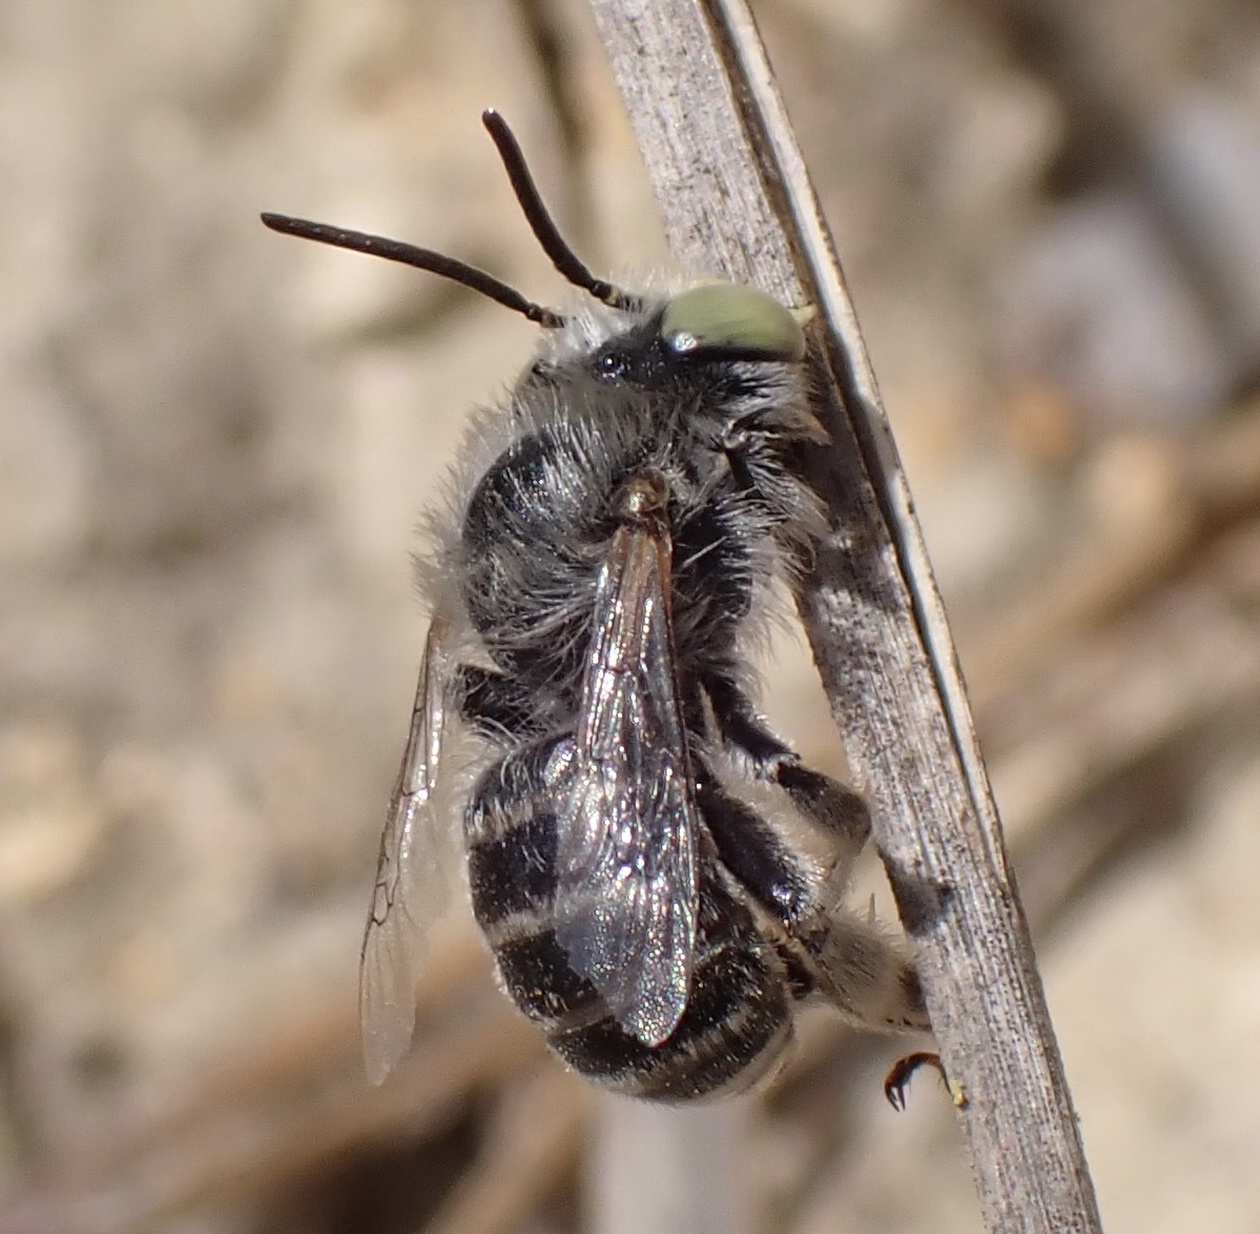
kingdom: Animalia
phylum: Arthropoda
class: Insecta
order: Hymenoptera
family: Apidae
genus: Anthophora
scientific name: Anthophora bimaculata
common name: Green-eyed flower bee
